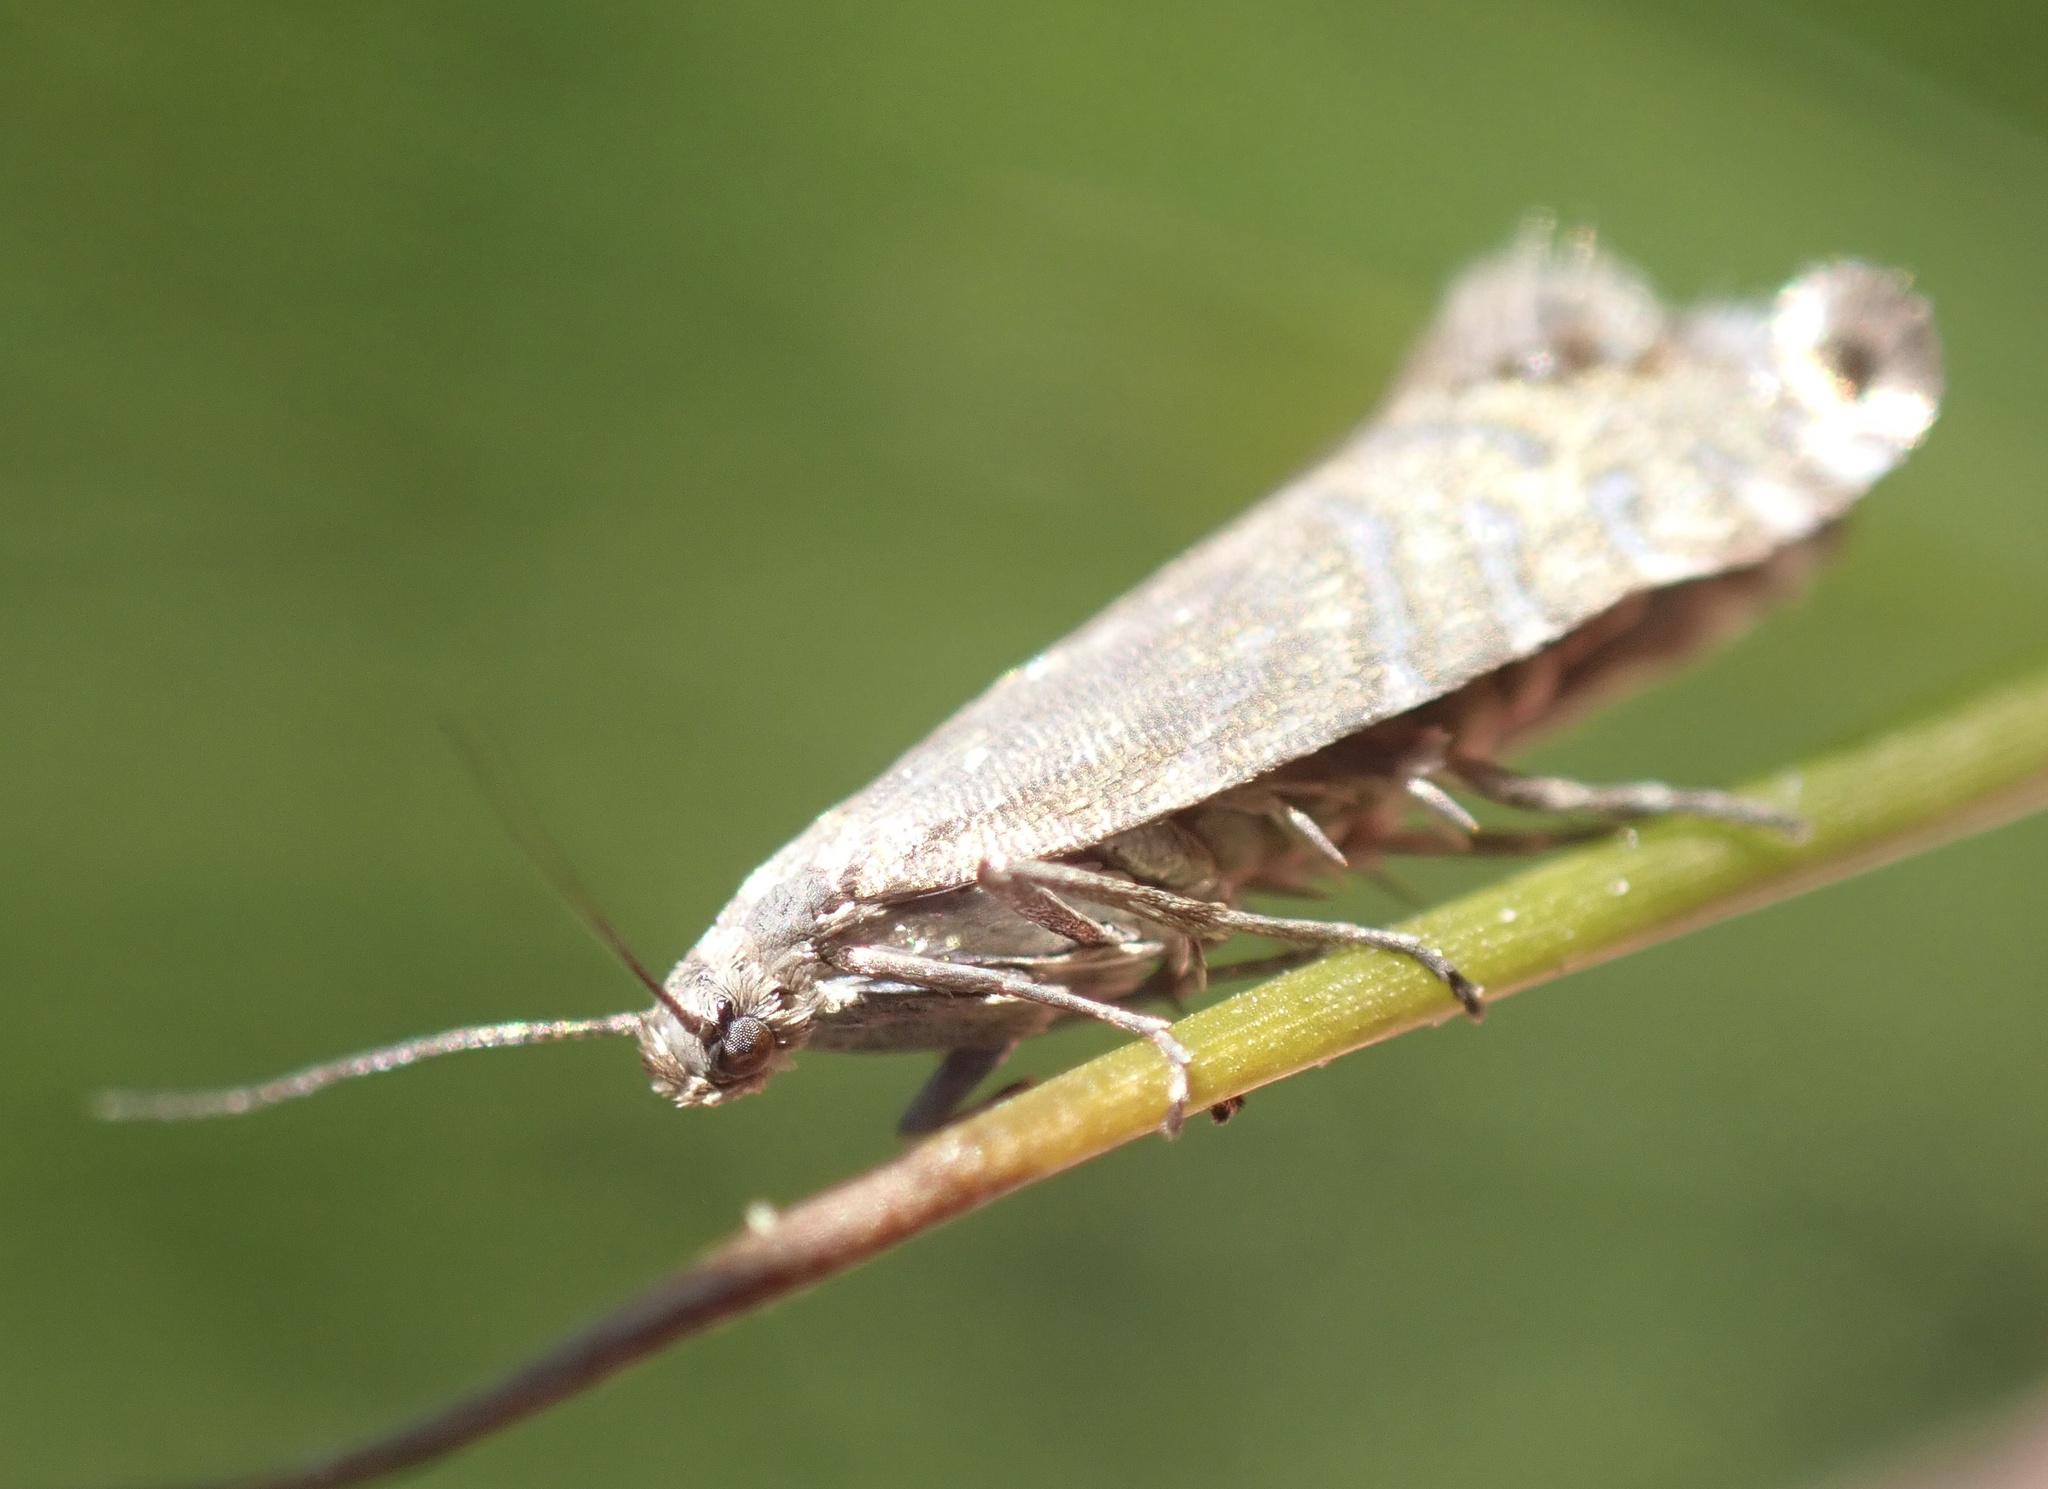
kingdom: Animalia
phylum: Arthropoda
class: Insecta
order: Lepidoptera
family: Glyphipterigidae
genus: Glyphipterix
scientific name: Glyphipterix thrasonella
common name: Speckled fanner
